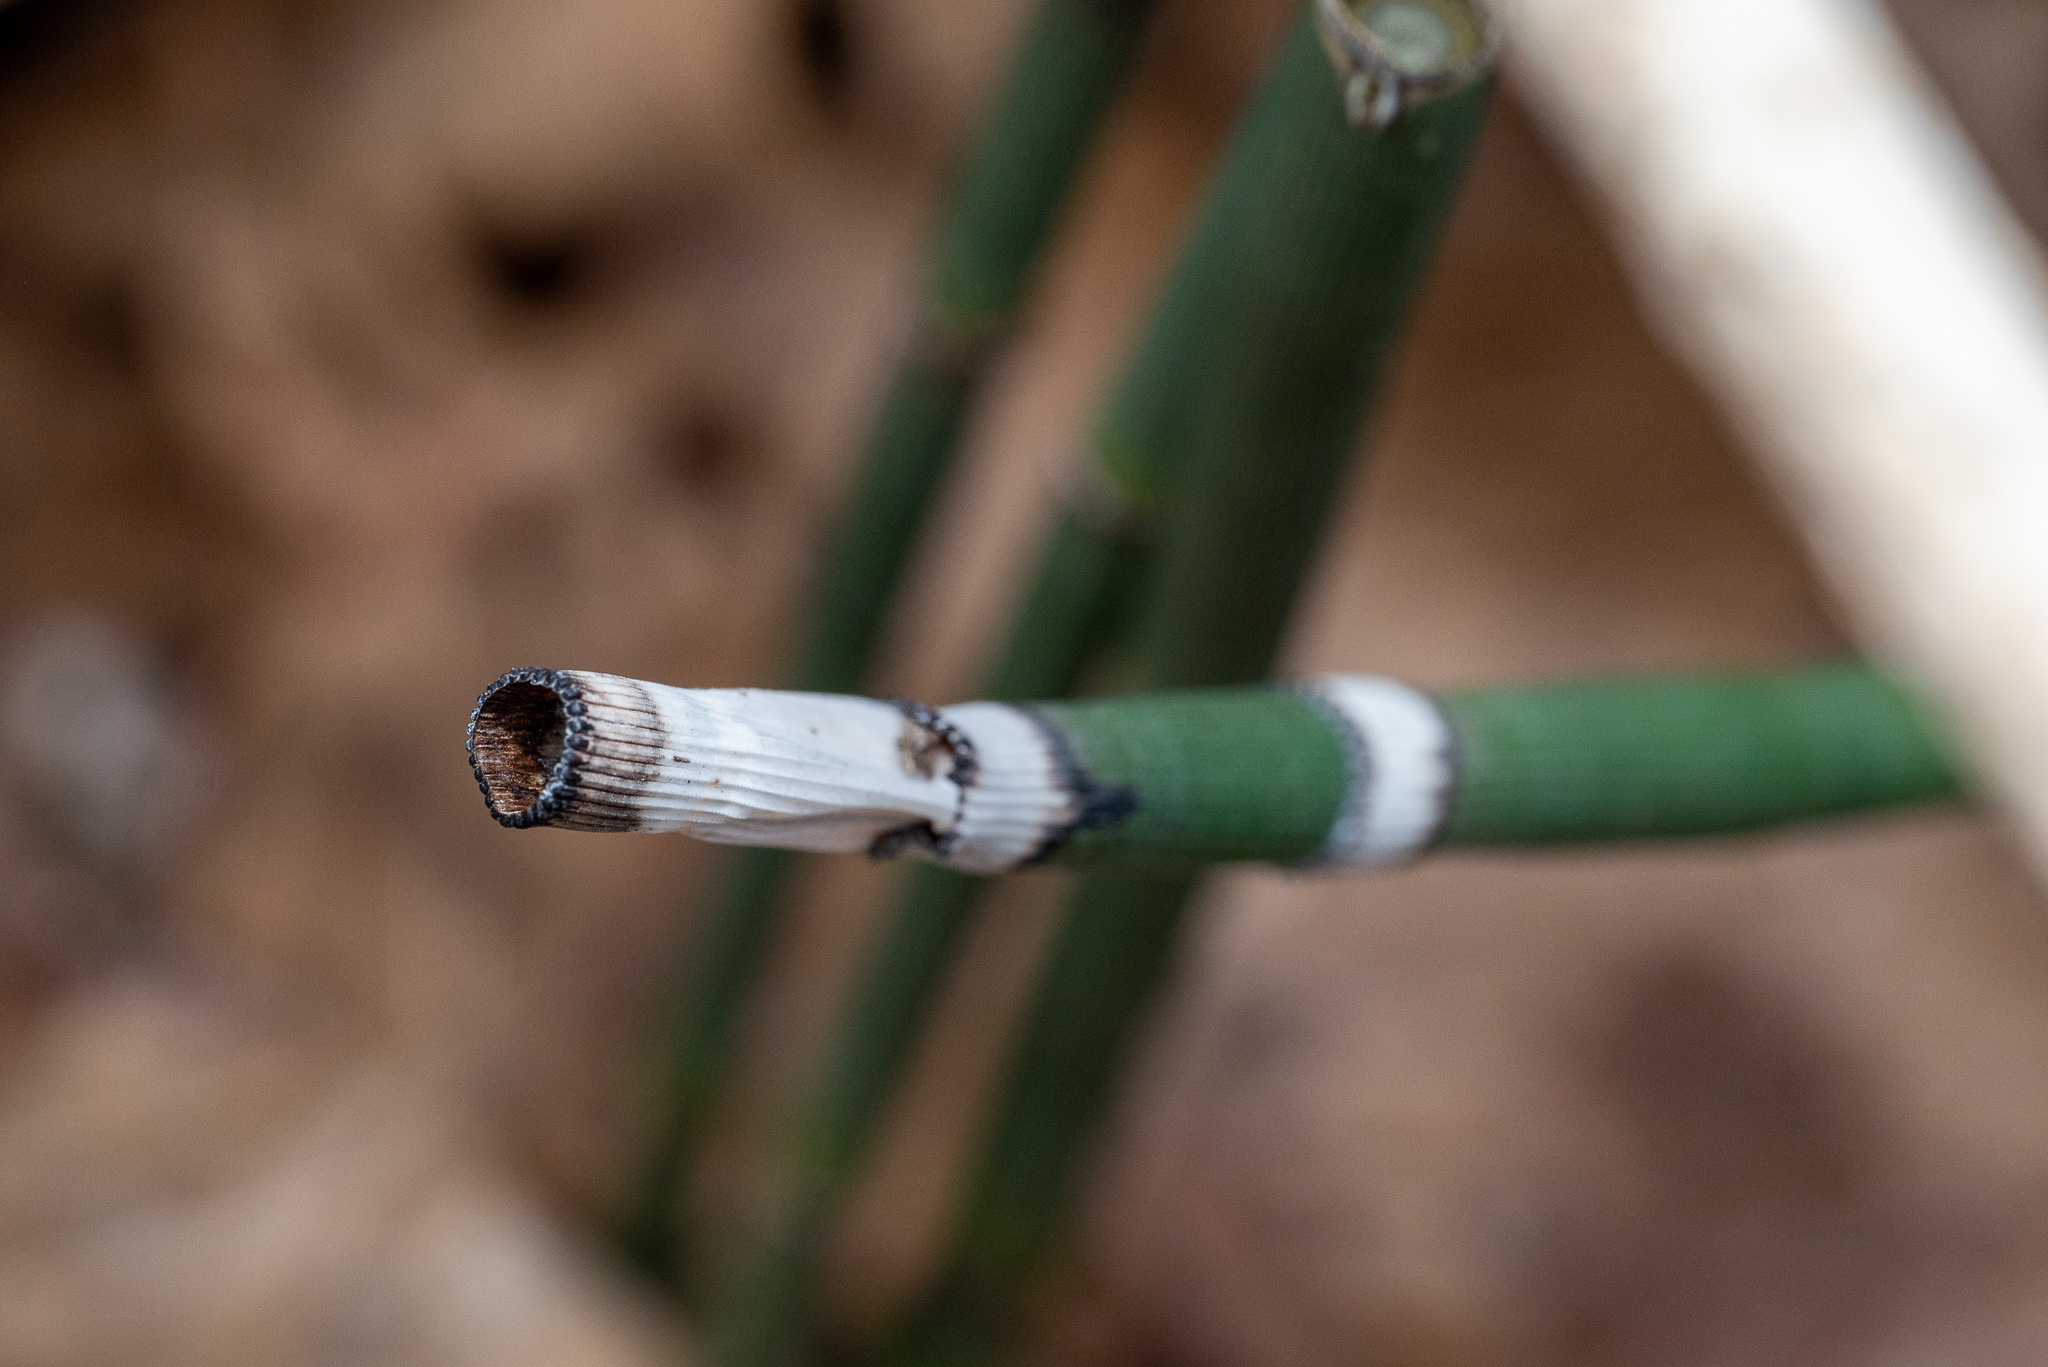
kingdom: Plantae
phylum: Tracheophyta
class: Polypodiopsida
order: Equisetales
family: Equisetaceae
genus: Equisetum
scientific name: Equisetum praealtum
